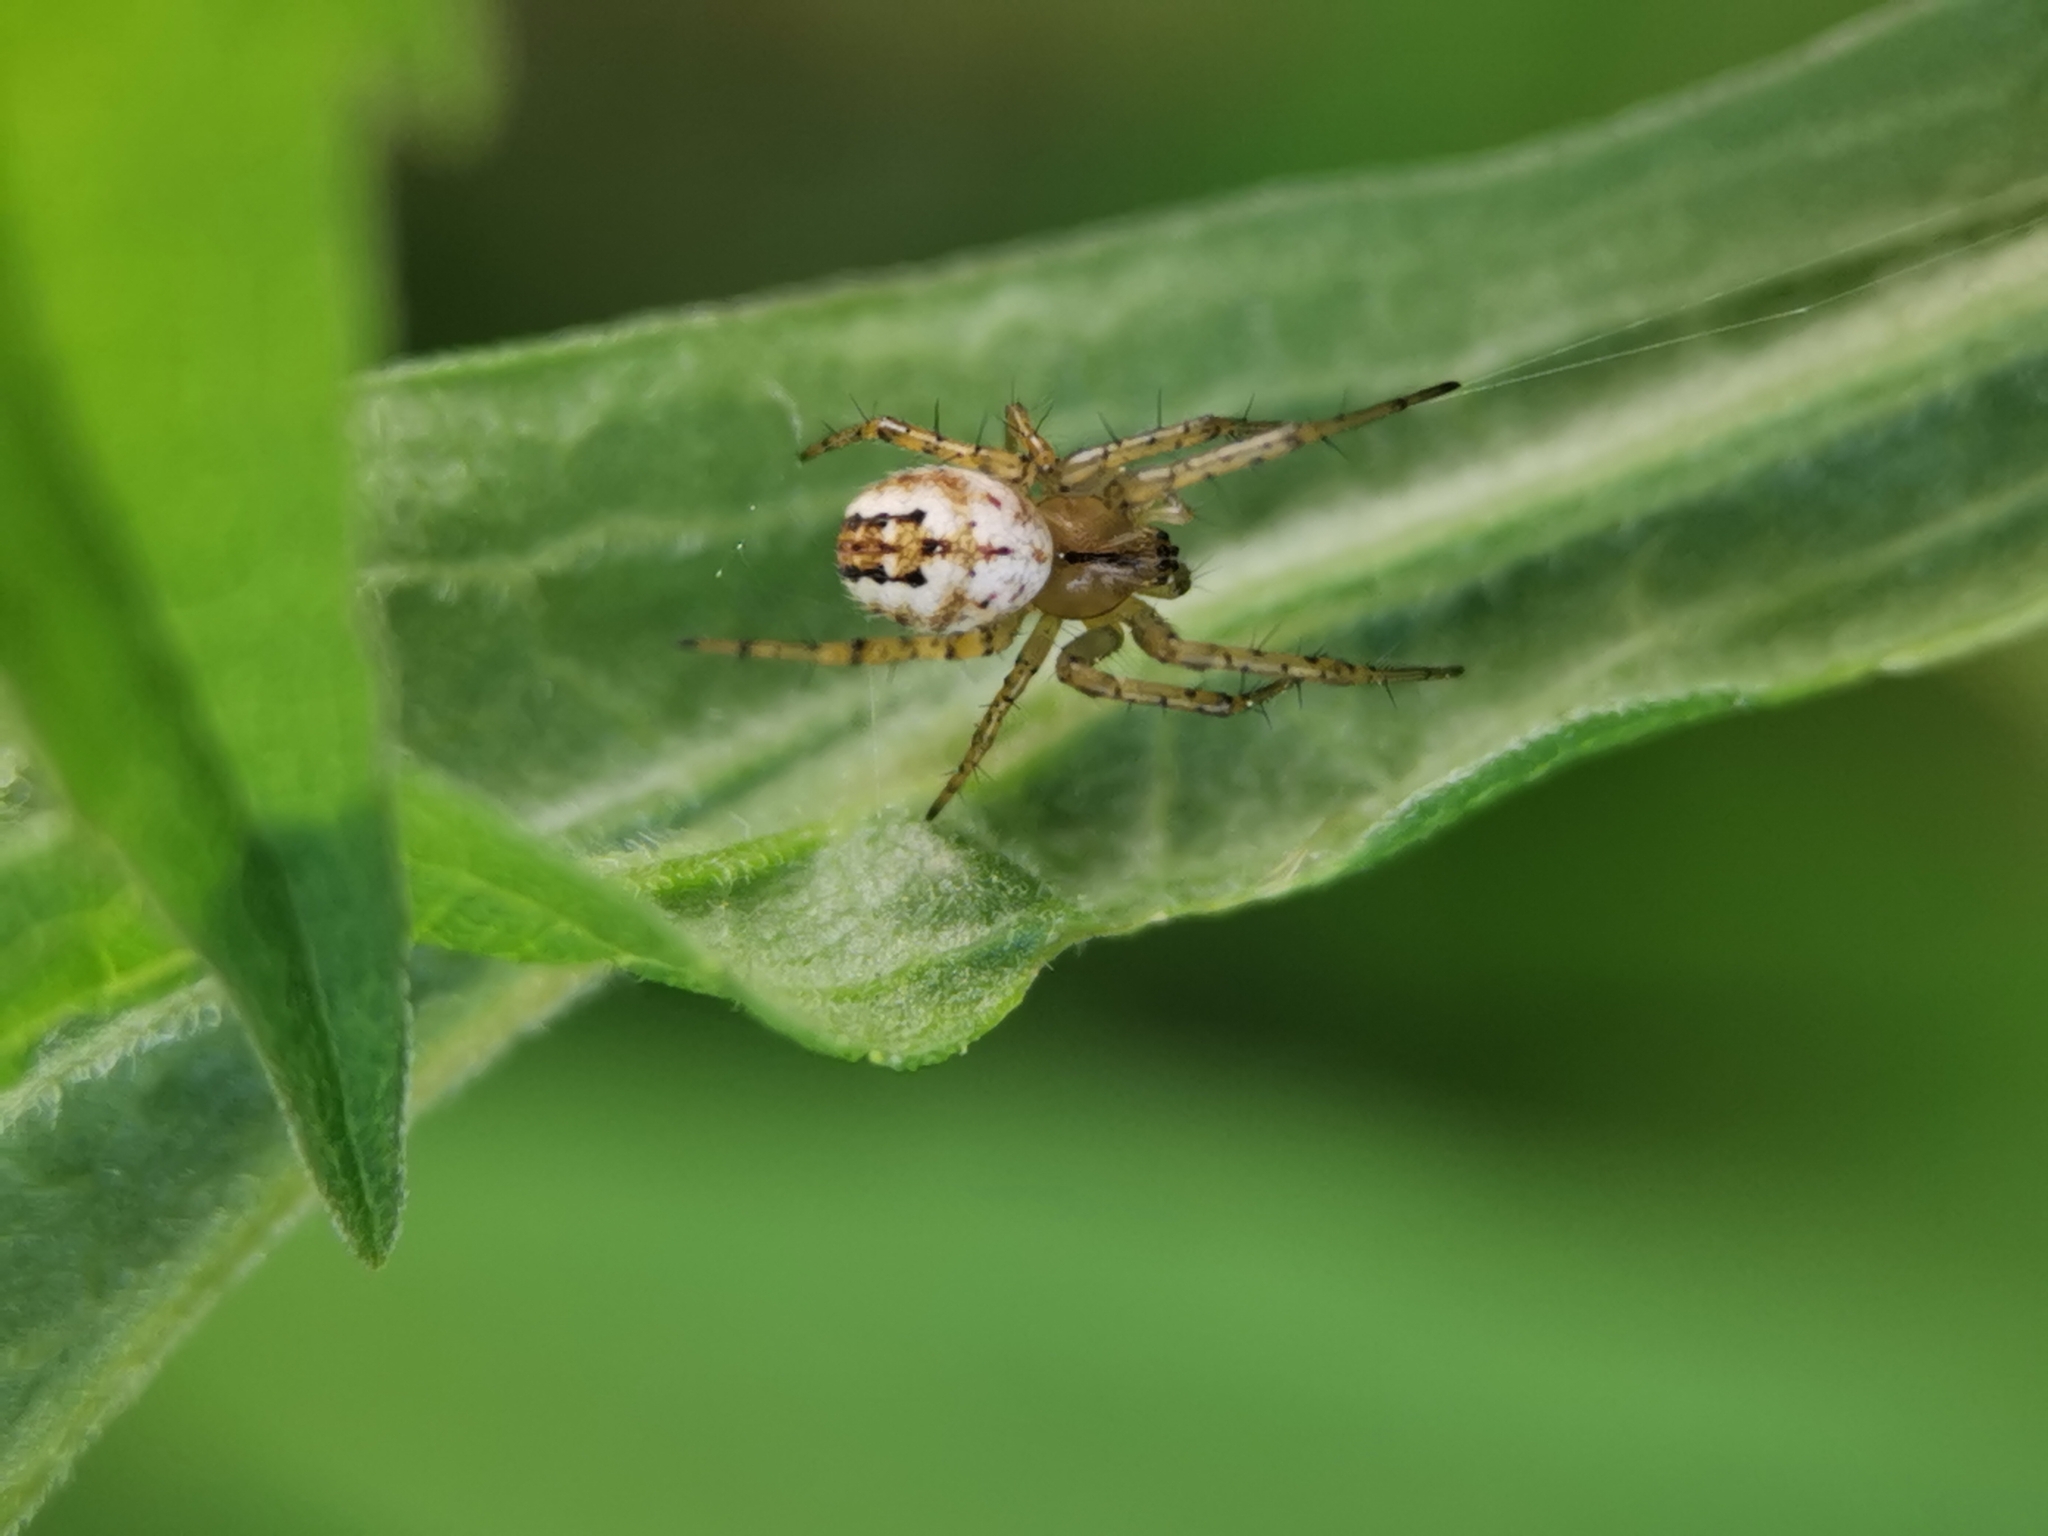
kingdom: Animalia
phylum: Arthropoda
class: Arachnida
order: Araneae
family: Araneidae
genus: Mangora
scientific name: Mangora acalypha
